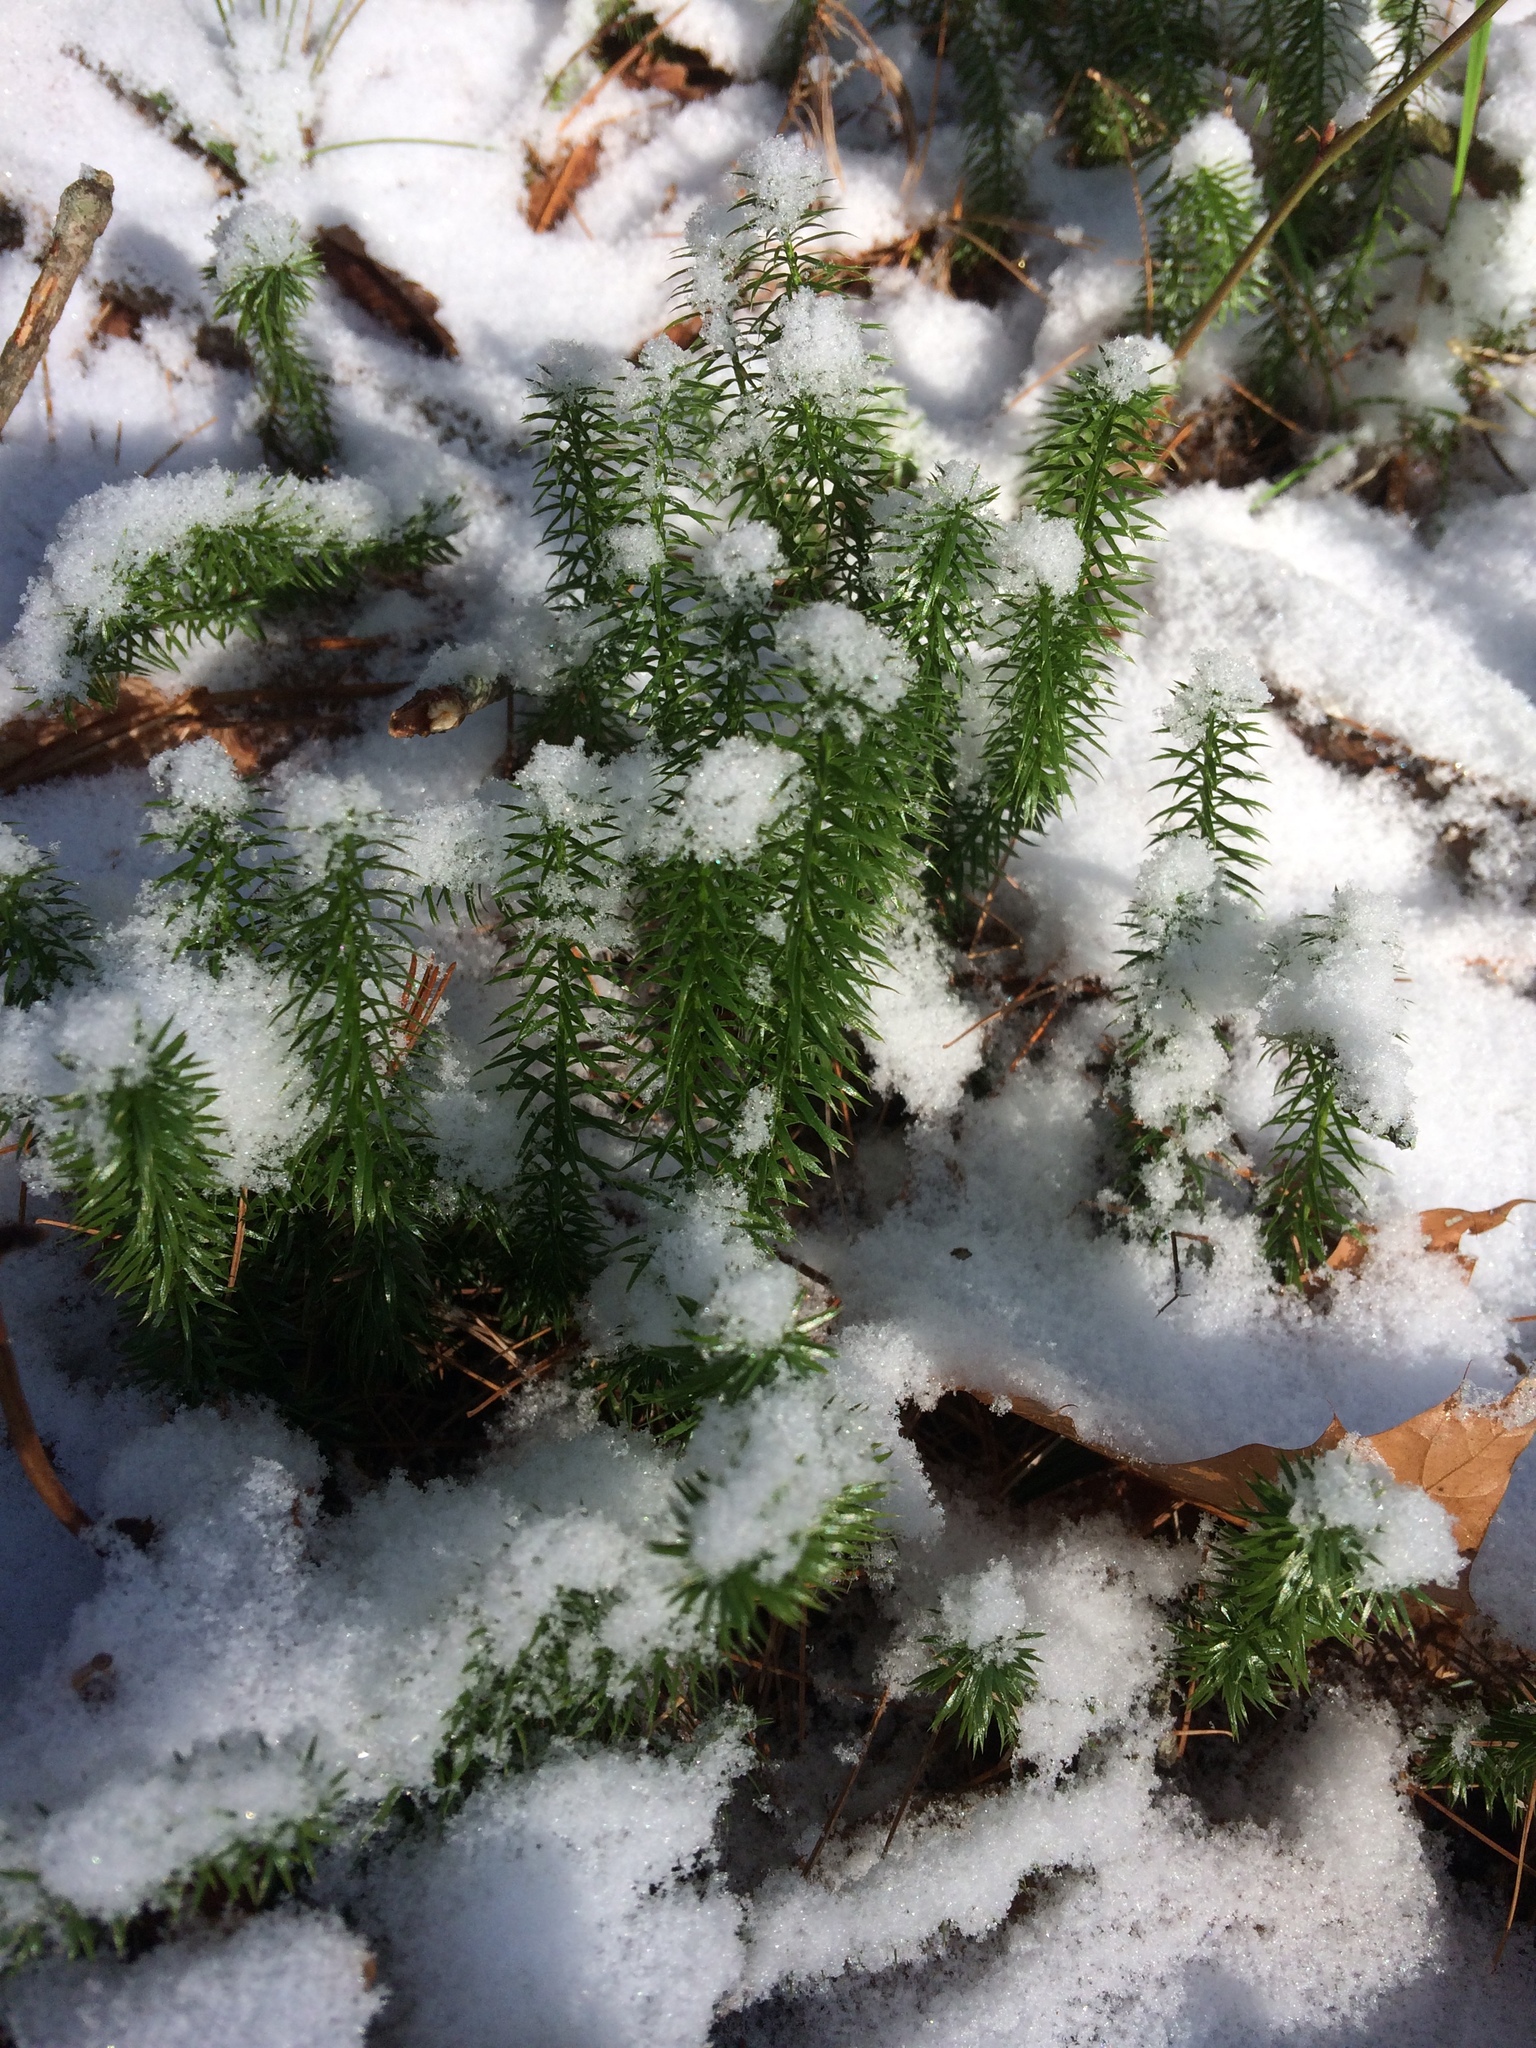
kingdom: Plantae
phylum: Tracheophyta
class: Lycopodiopsida
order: Lycopodiales
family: Lycopodiaceae
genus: Spinulum
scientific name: Spinulum annotinum
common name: Interrupted club-moss
